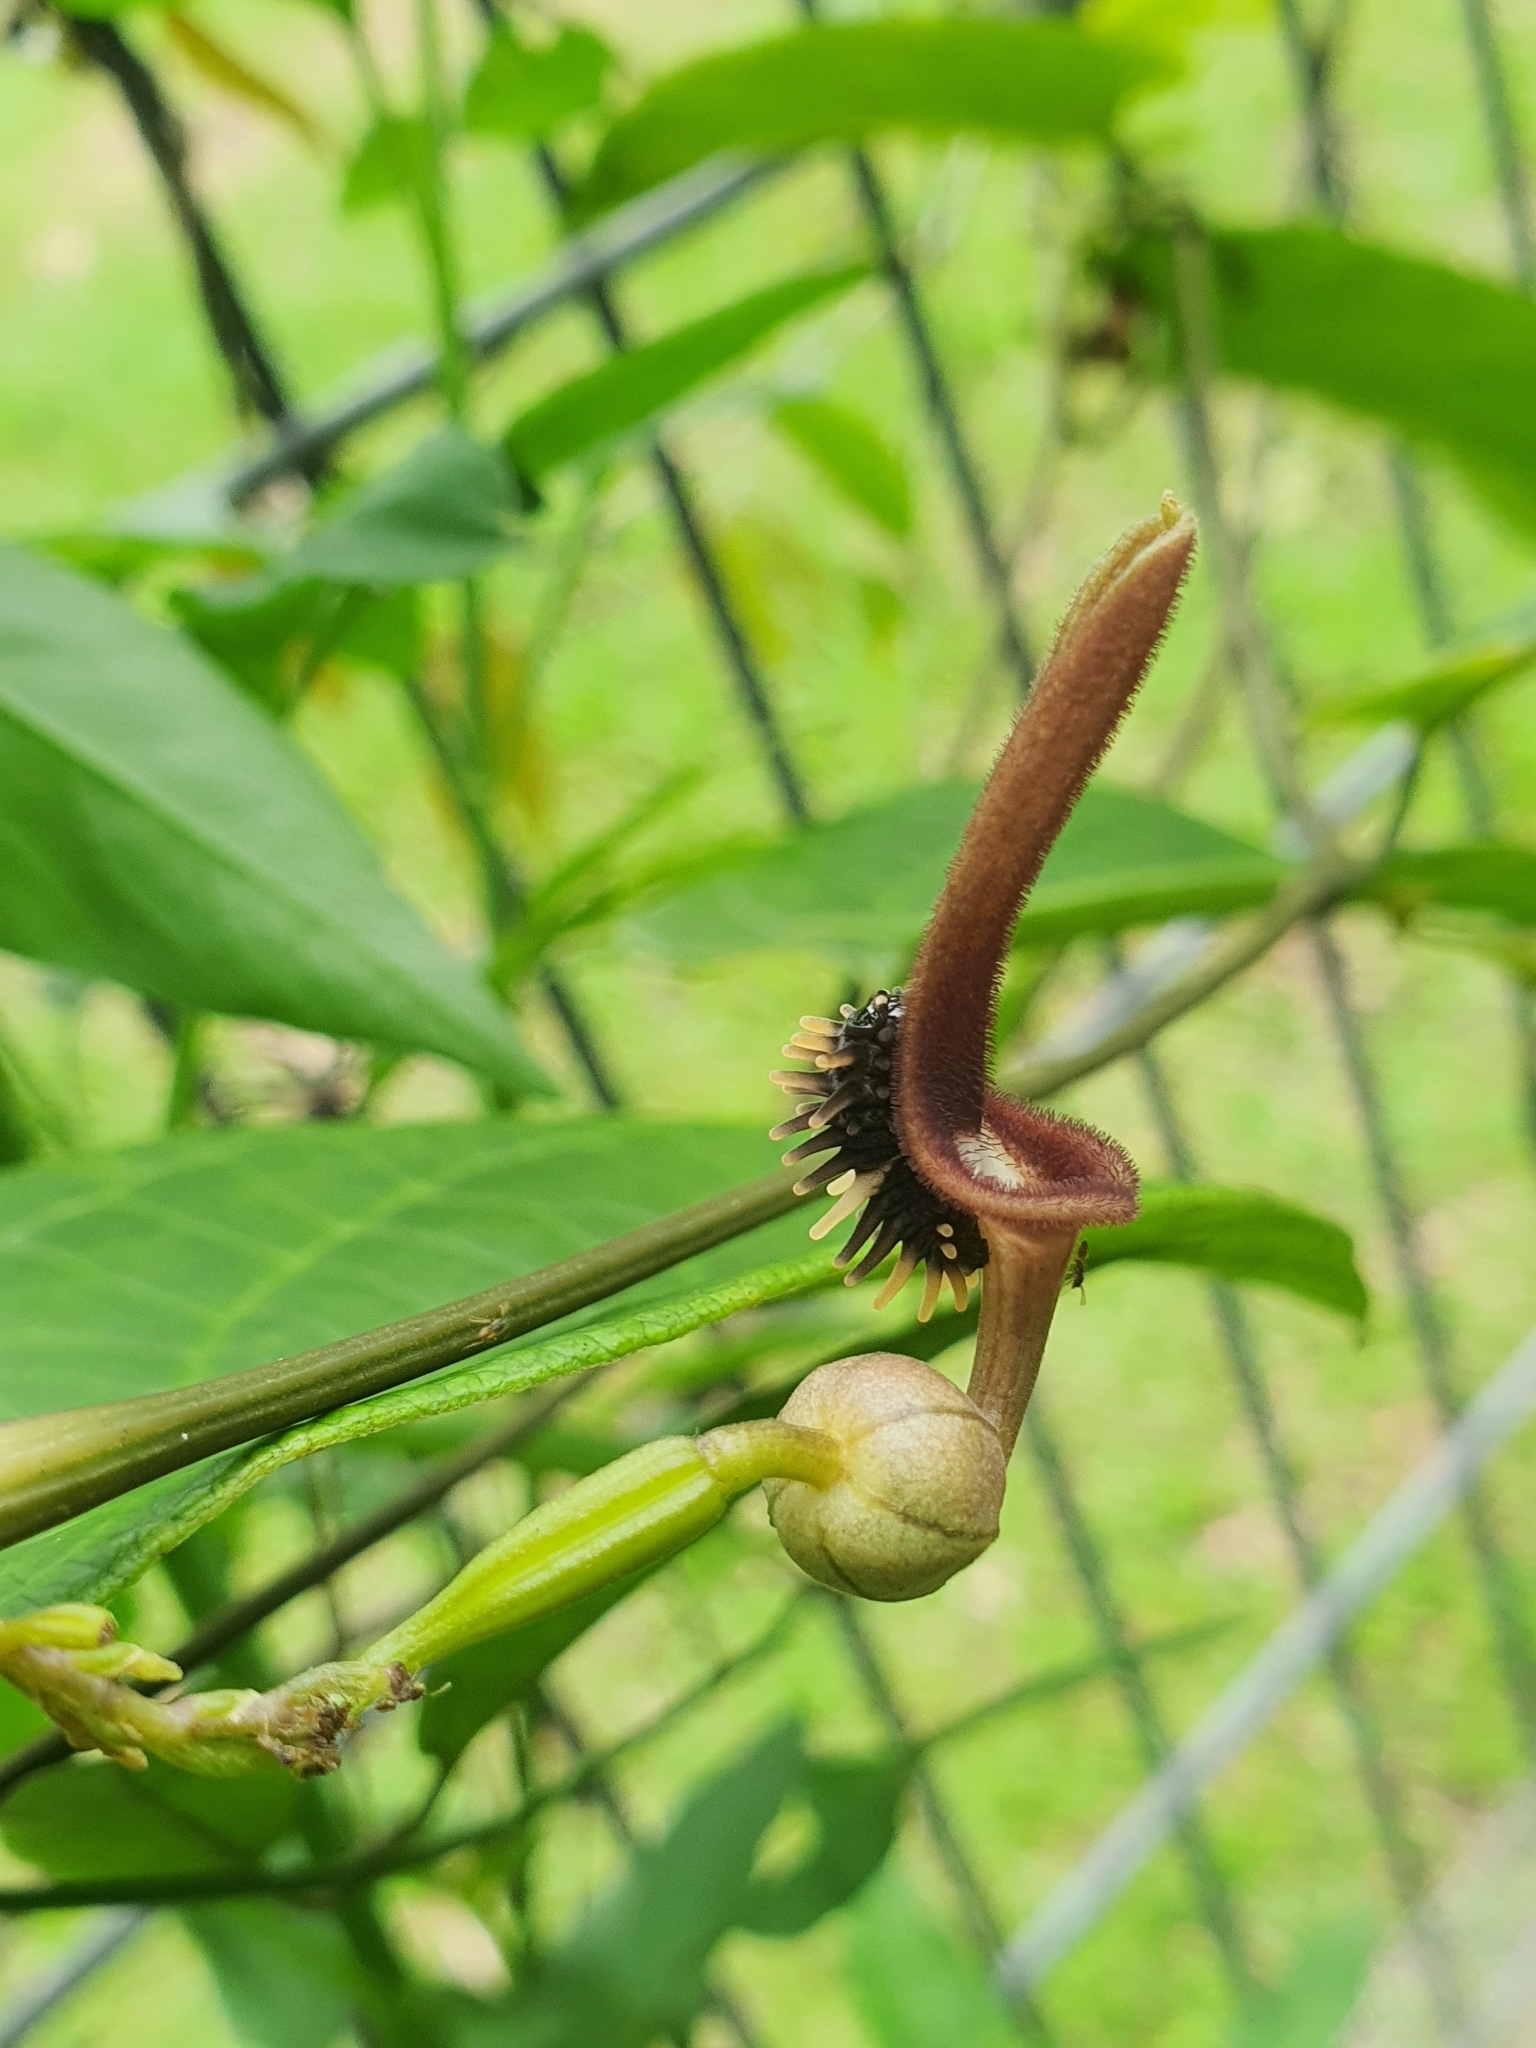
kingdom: Animalia
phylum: Arthropoda
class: Insecta
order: Lepidoptera
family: Papilionidae
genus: Troides
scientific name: Troides helena
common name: Common birdwing
